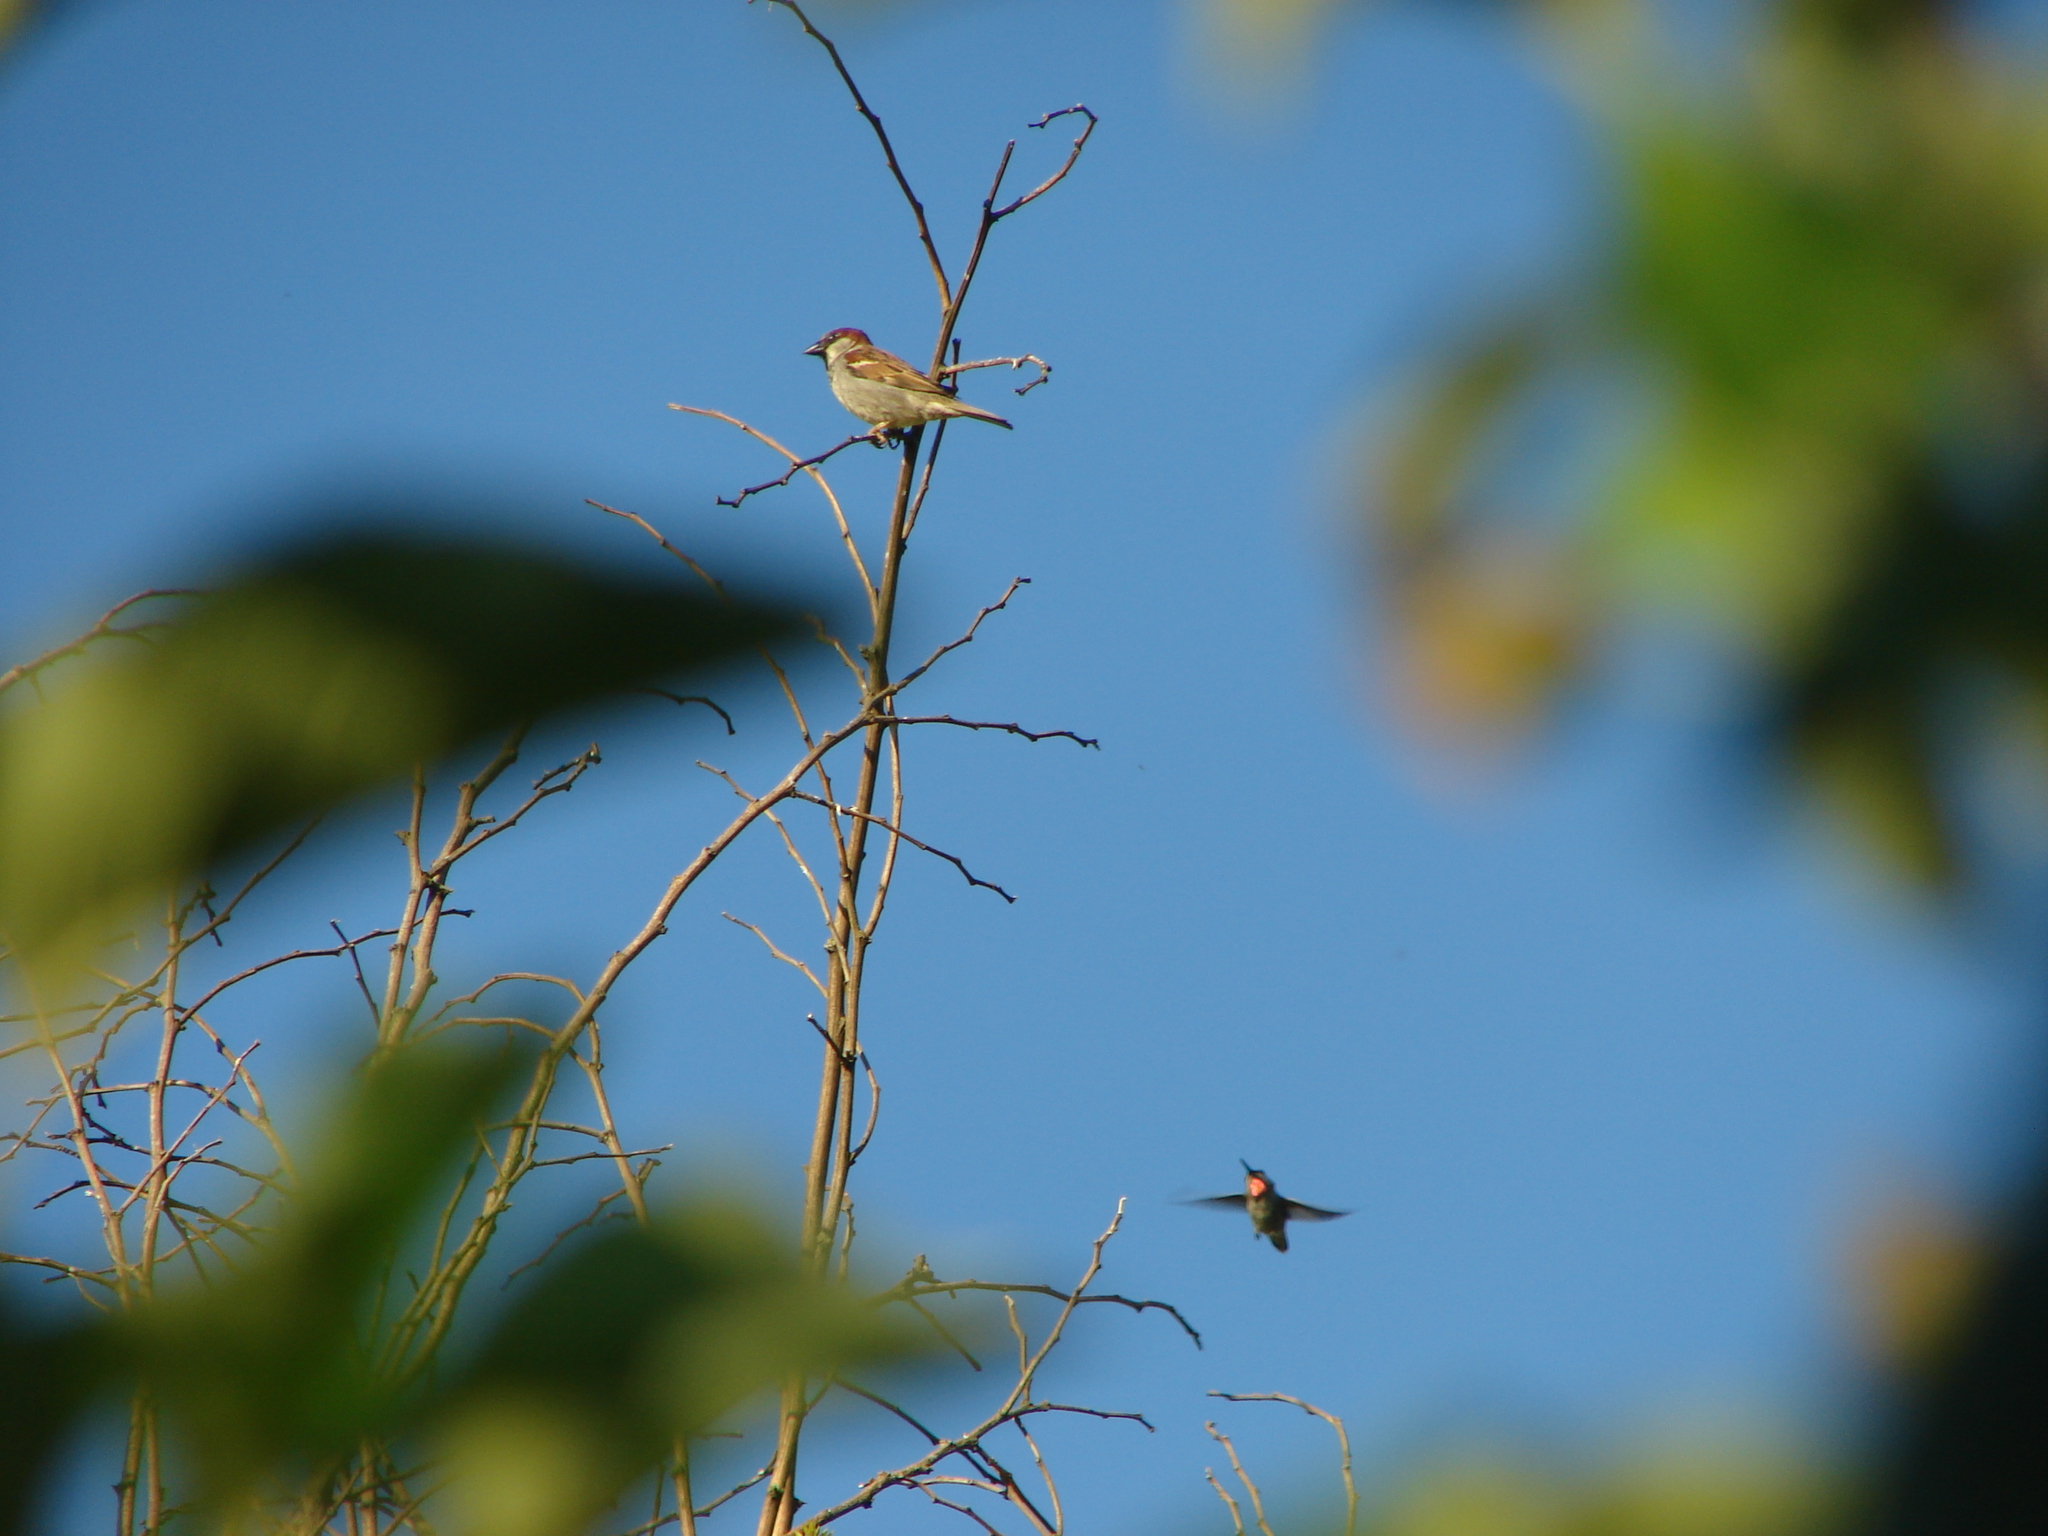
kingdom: Animalia
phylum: Chordata
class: Aves
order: Apodiformes
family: Trochilidae
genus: Calypte
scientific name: Calypte anna
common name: Anna's hummingbird
